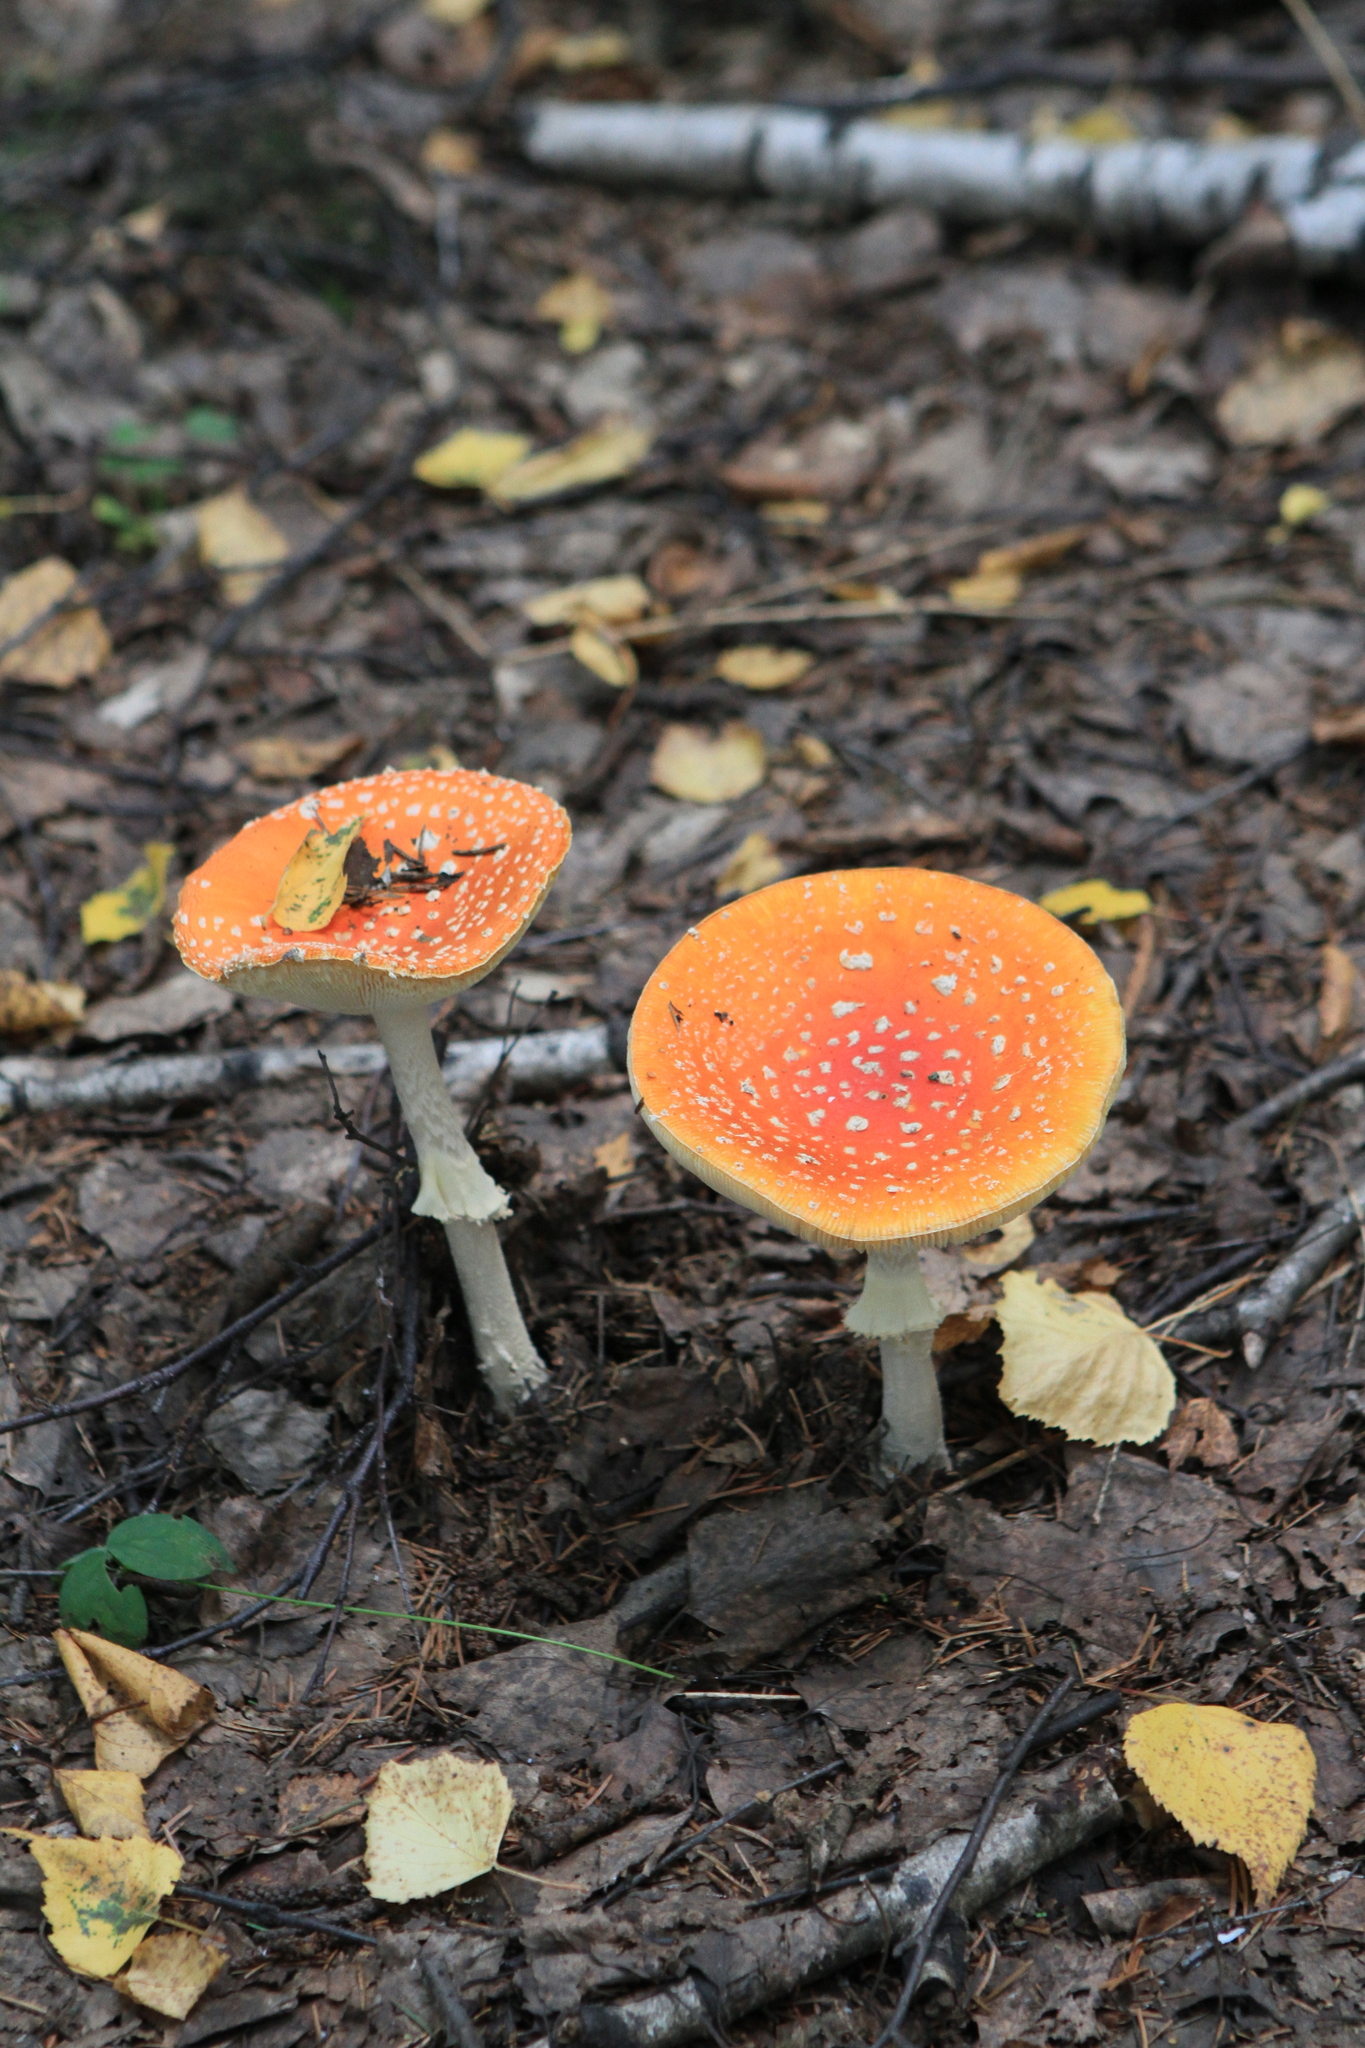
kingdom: Fungi
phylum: Basidiomycota
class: Agaricomycetes
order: Agaricales
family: Amanitaceae
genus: Amanita
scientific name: Amanita muscaria
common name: Fly agaric
